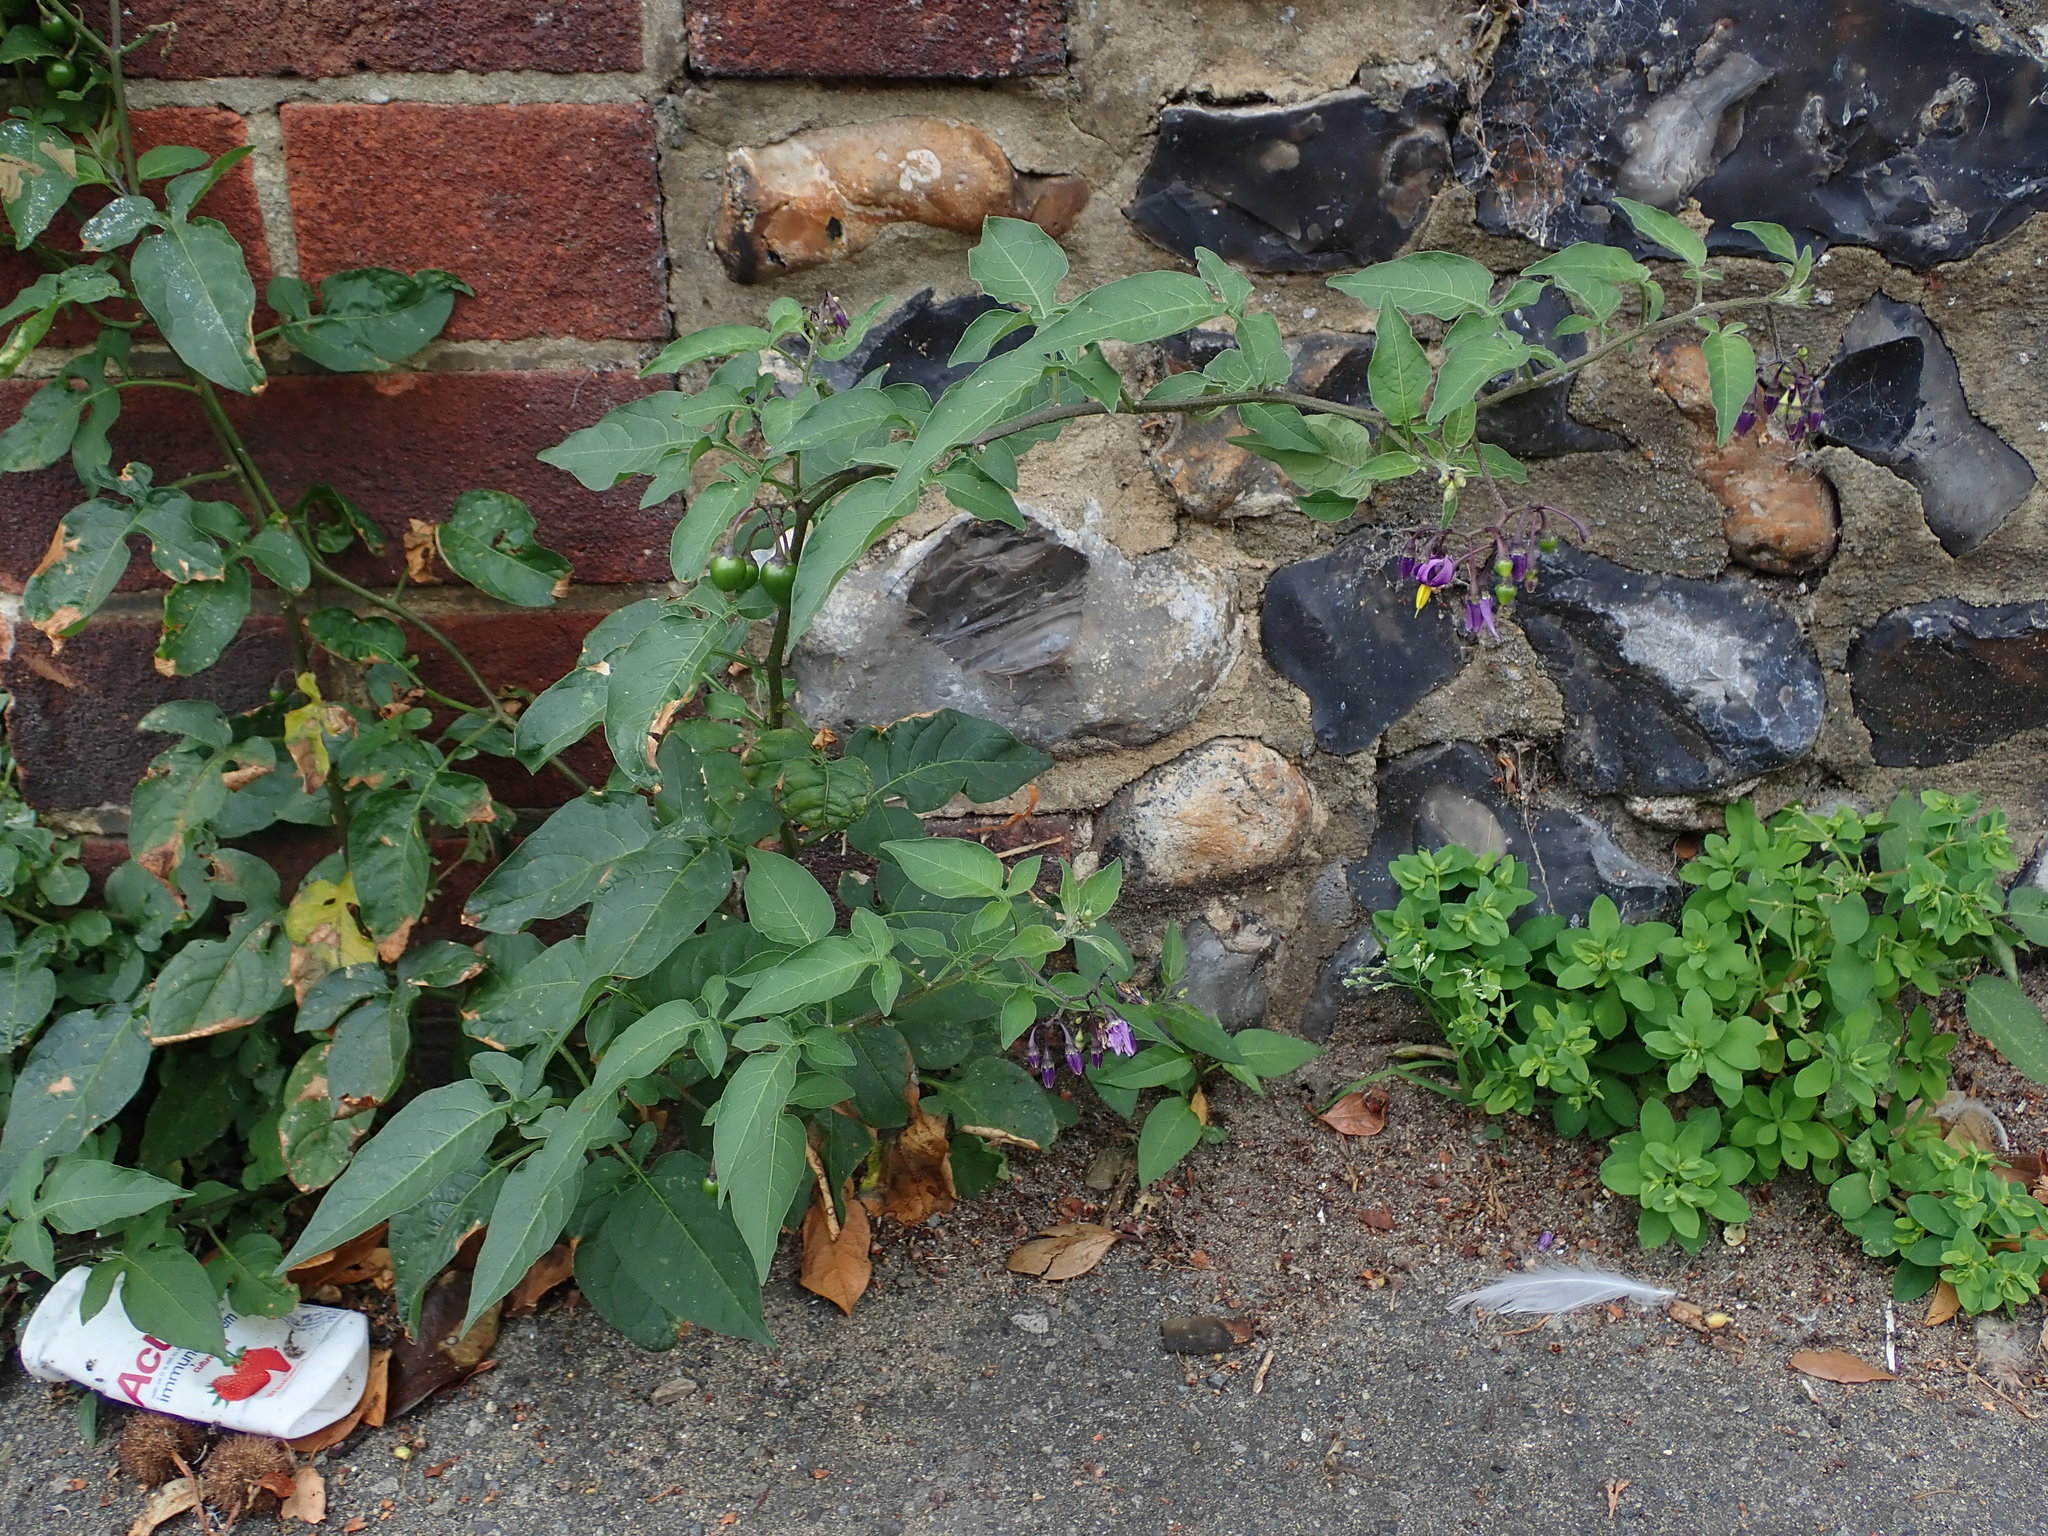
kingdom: Plantae
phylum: Tracheophyta
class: Magnoliopsida
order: Solanales
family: Solanaceae
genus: Solanum
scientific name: Solanum dulcamara
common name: Climbing nightshade
